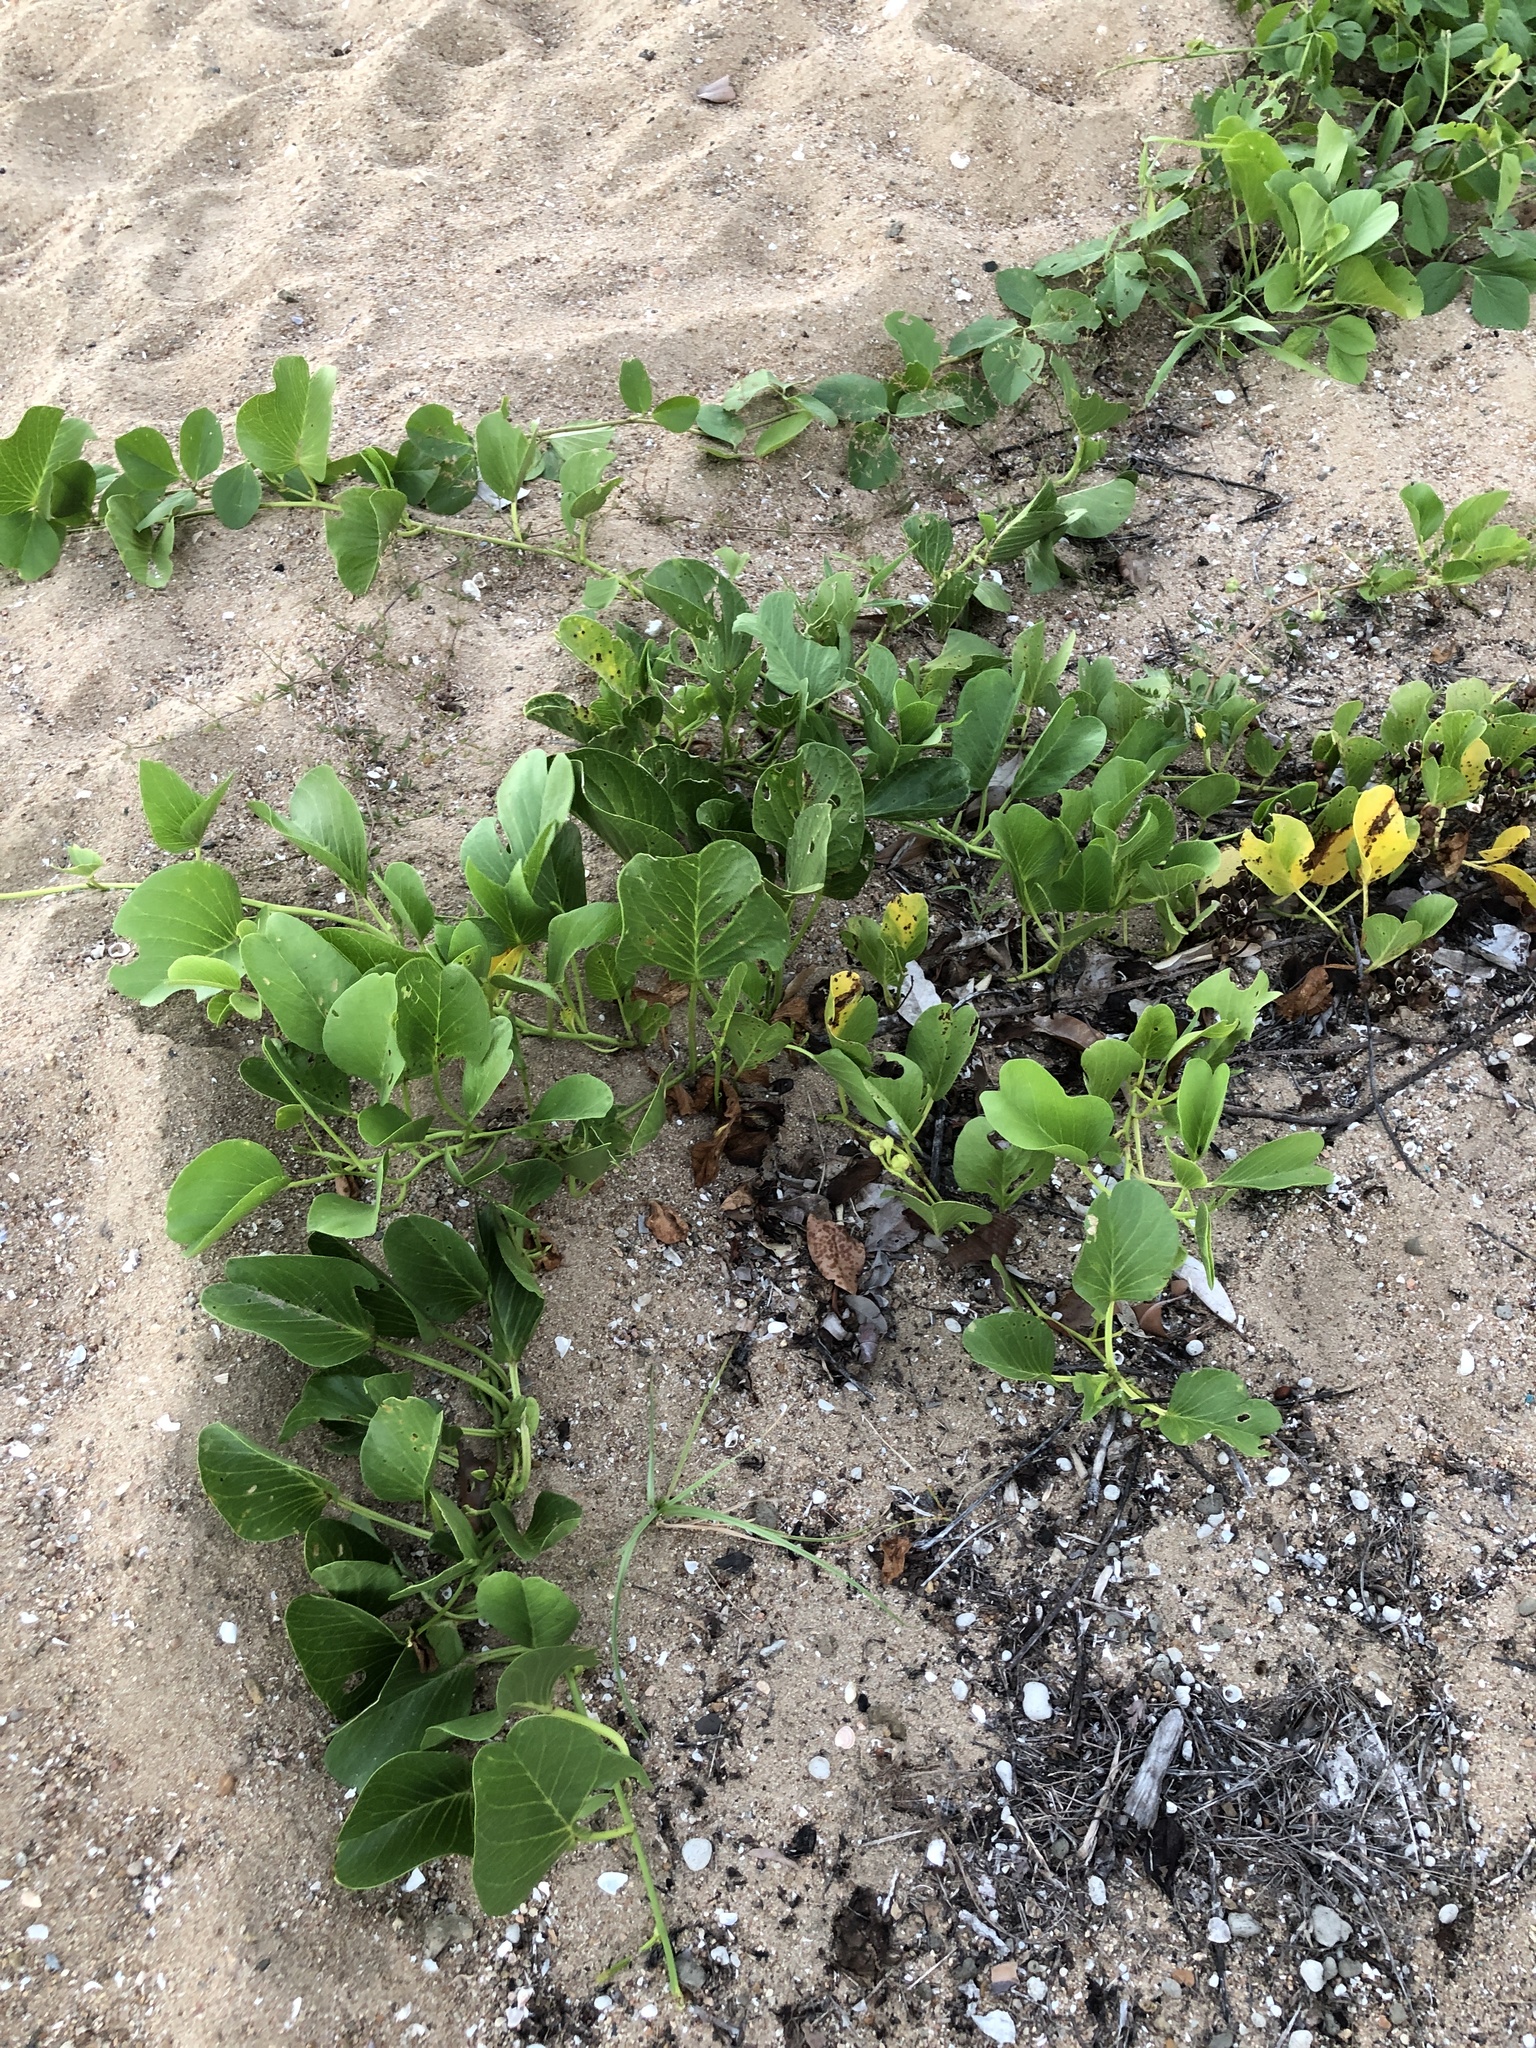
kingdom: Plantae
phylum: Tracheophyta
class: Magnoliopsida
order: Solanales
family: Convolvulaceae
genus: Ipomoea
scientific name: Ipomoea pes-caprae
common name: Beach morning glory
